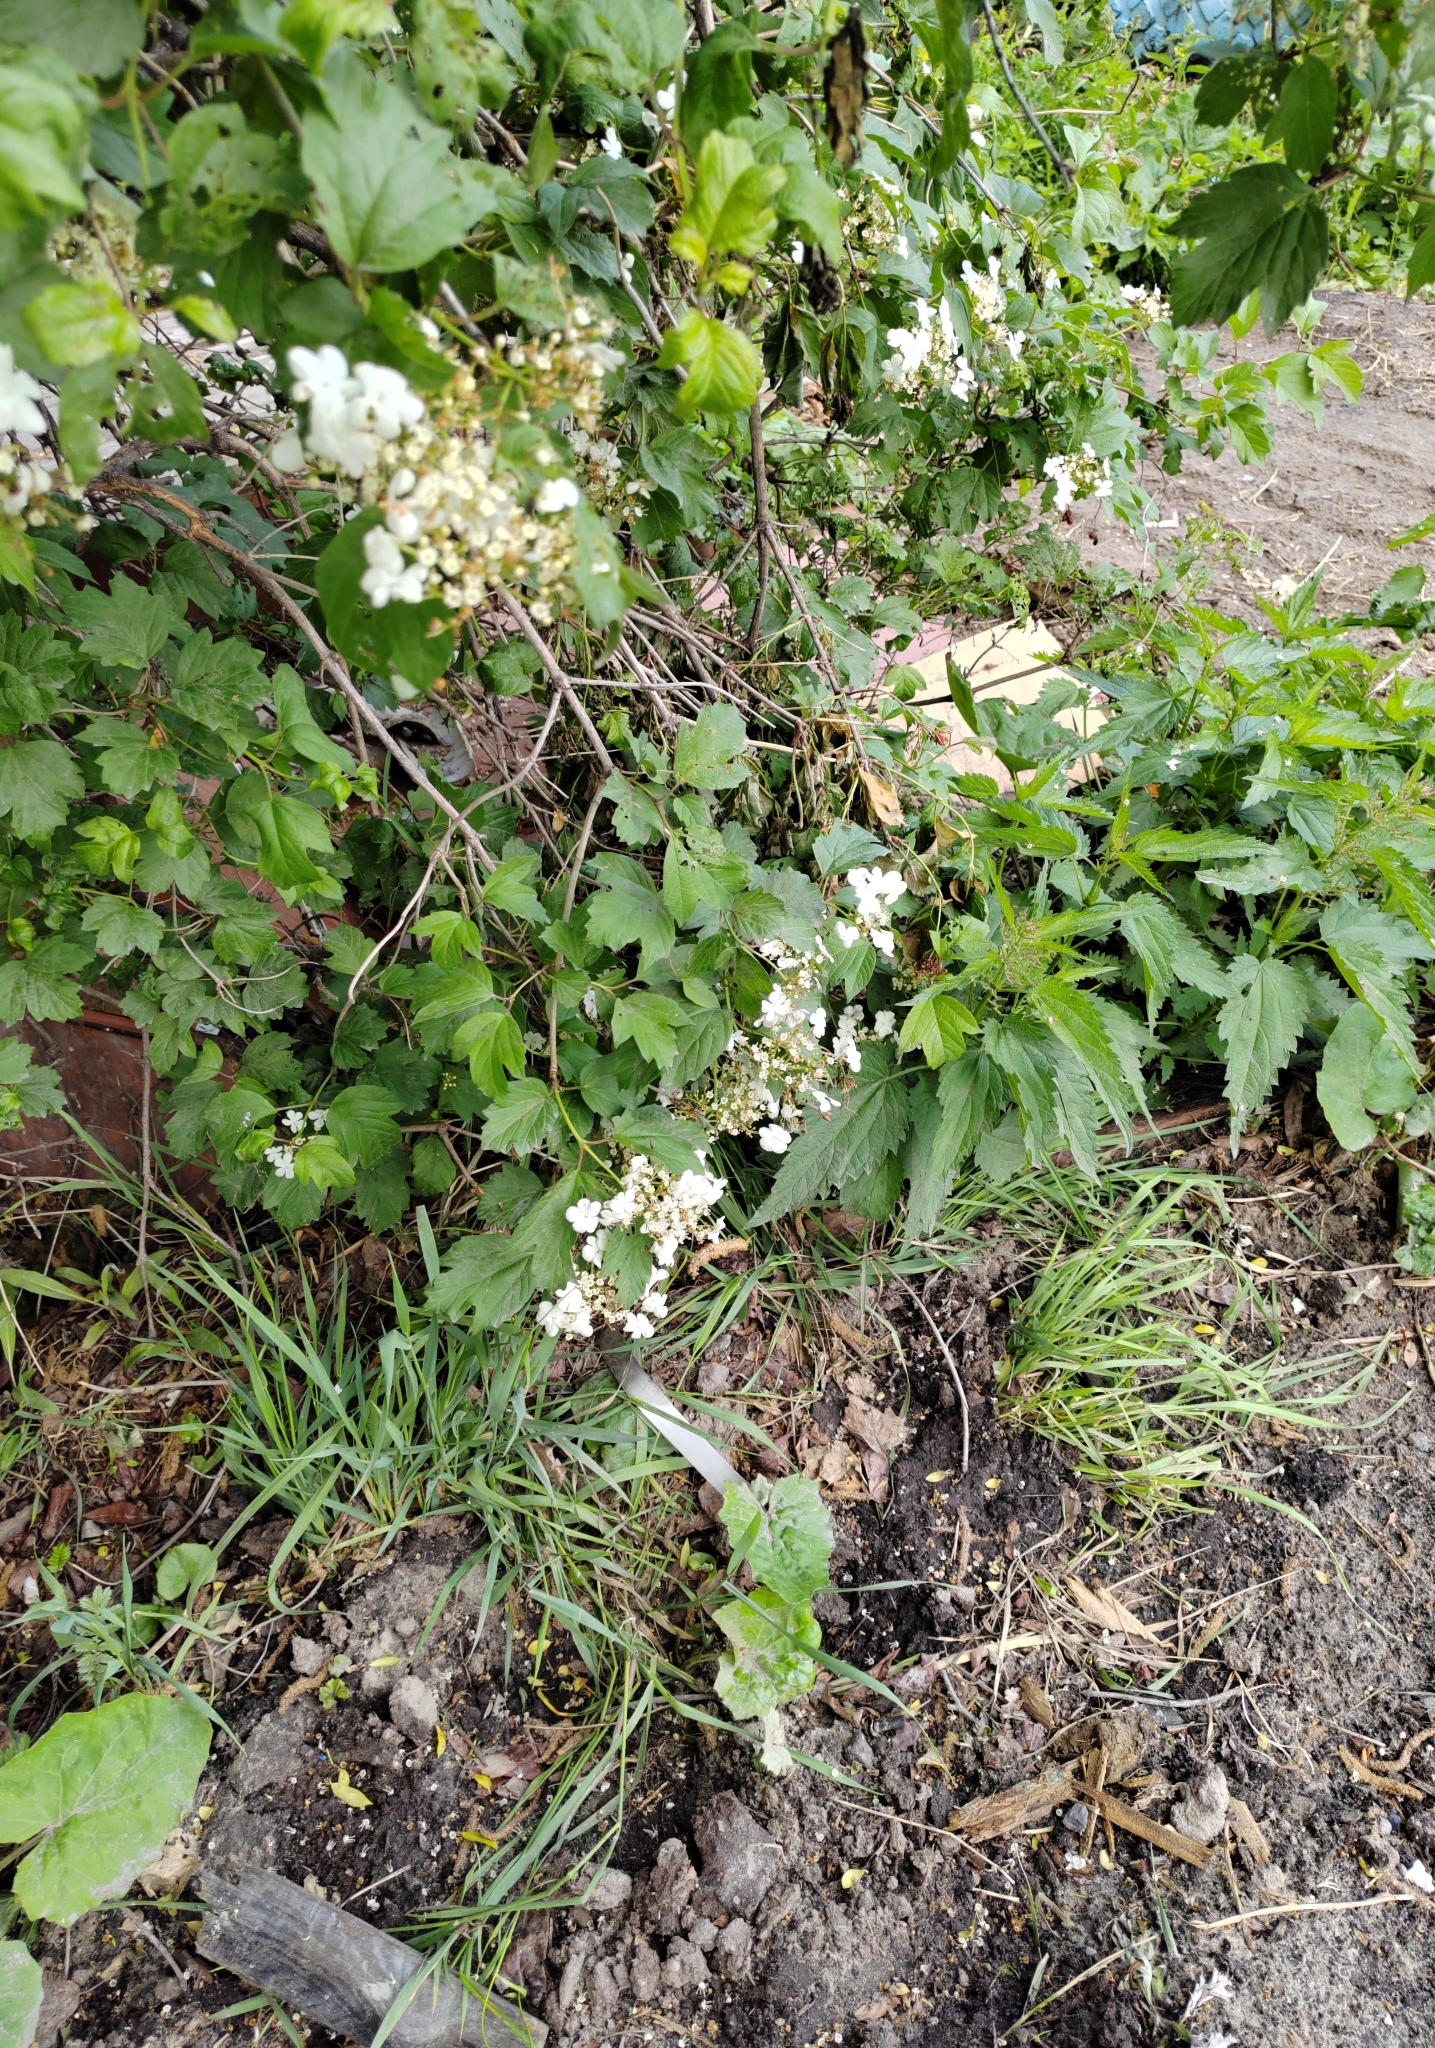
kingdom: Plantae
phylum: Tracheophyta
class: Magnoliopsida
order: Dipsacales
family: Viburnaceae
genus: Viburnum
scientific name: Viburnum opulus
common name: Guelder-rose
